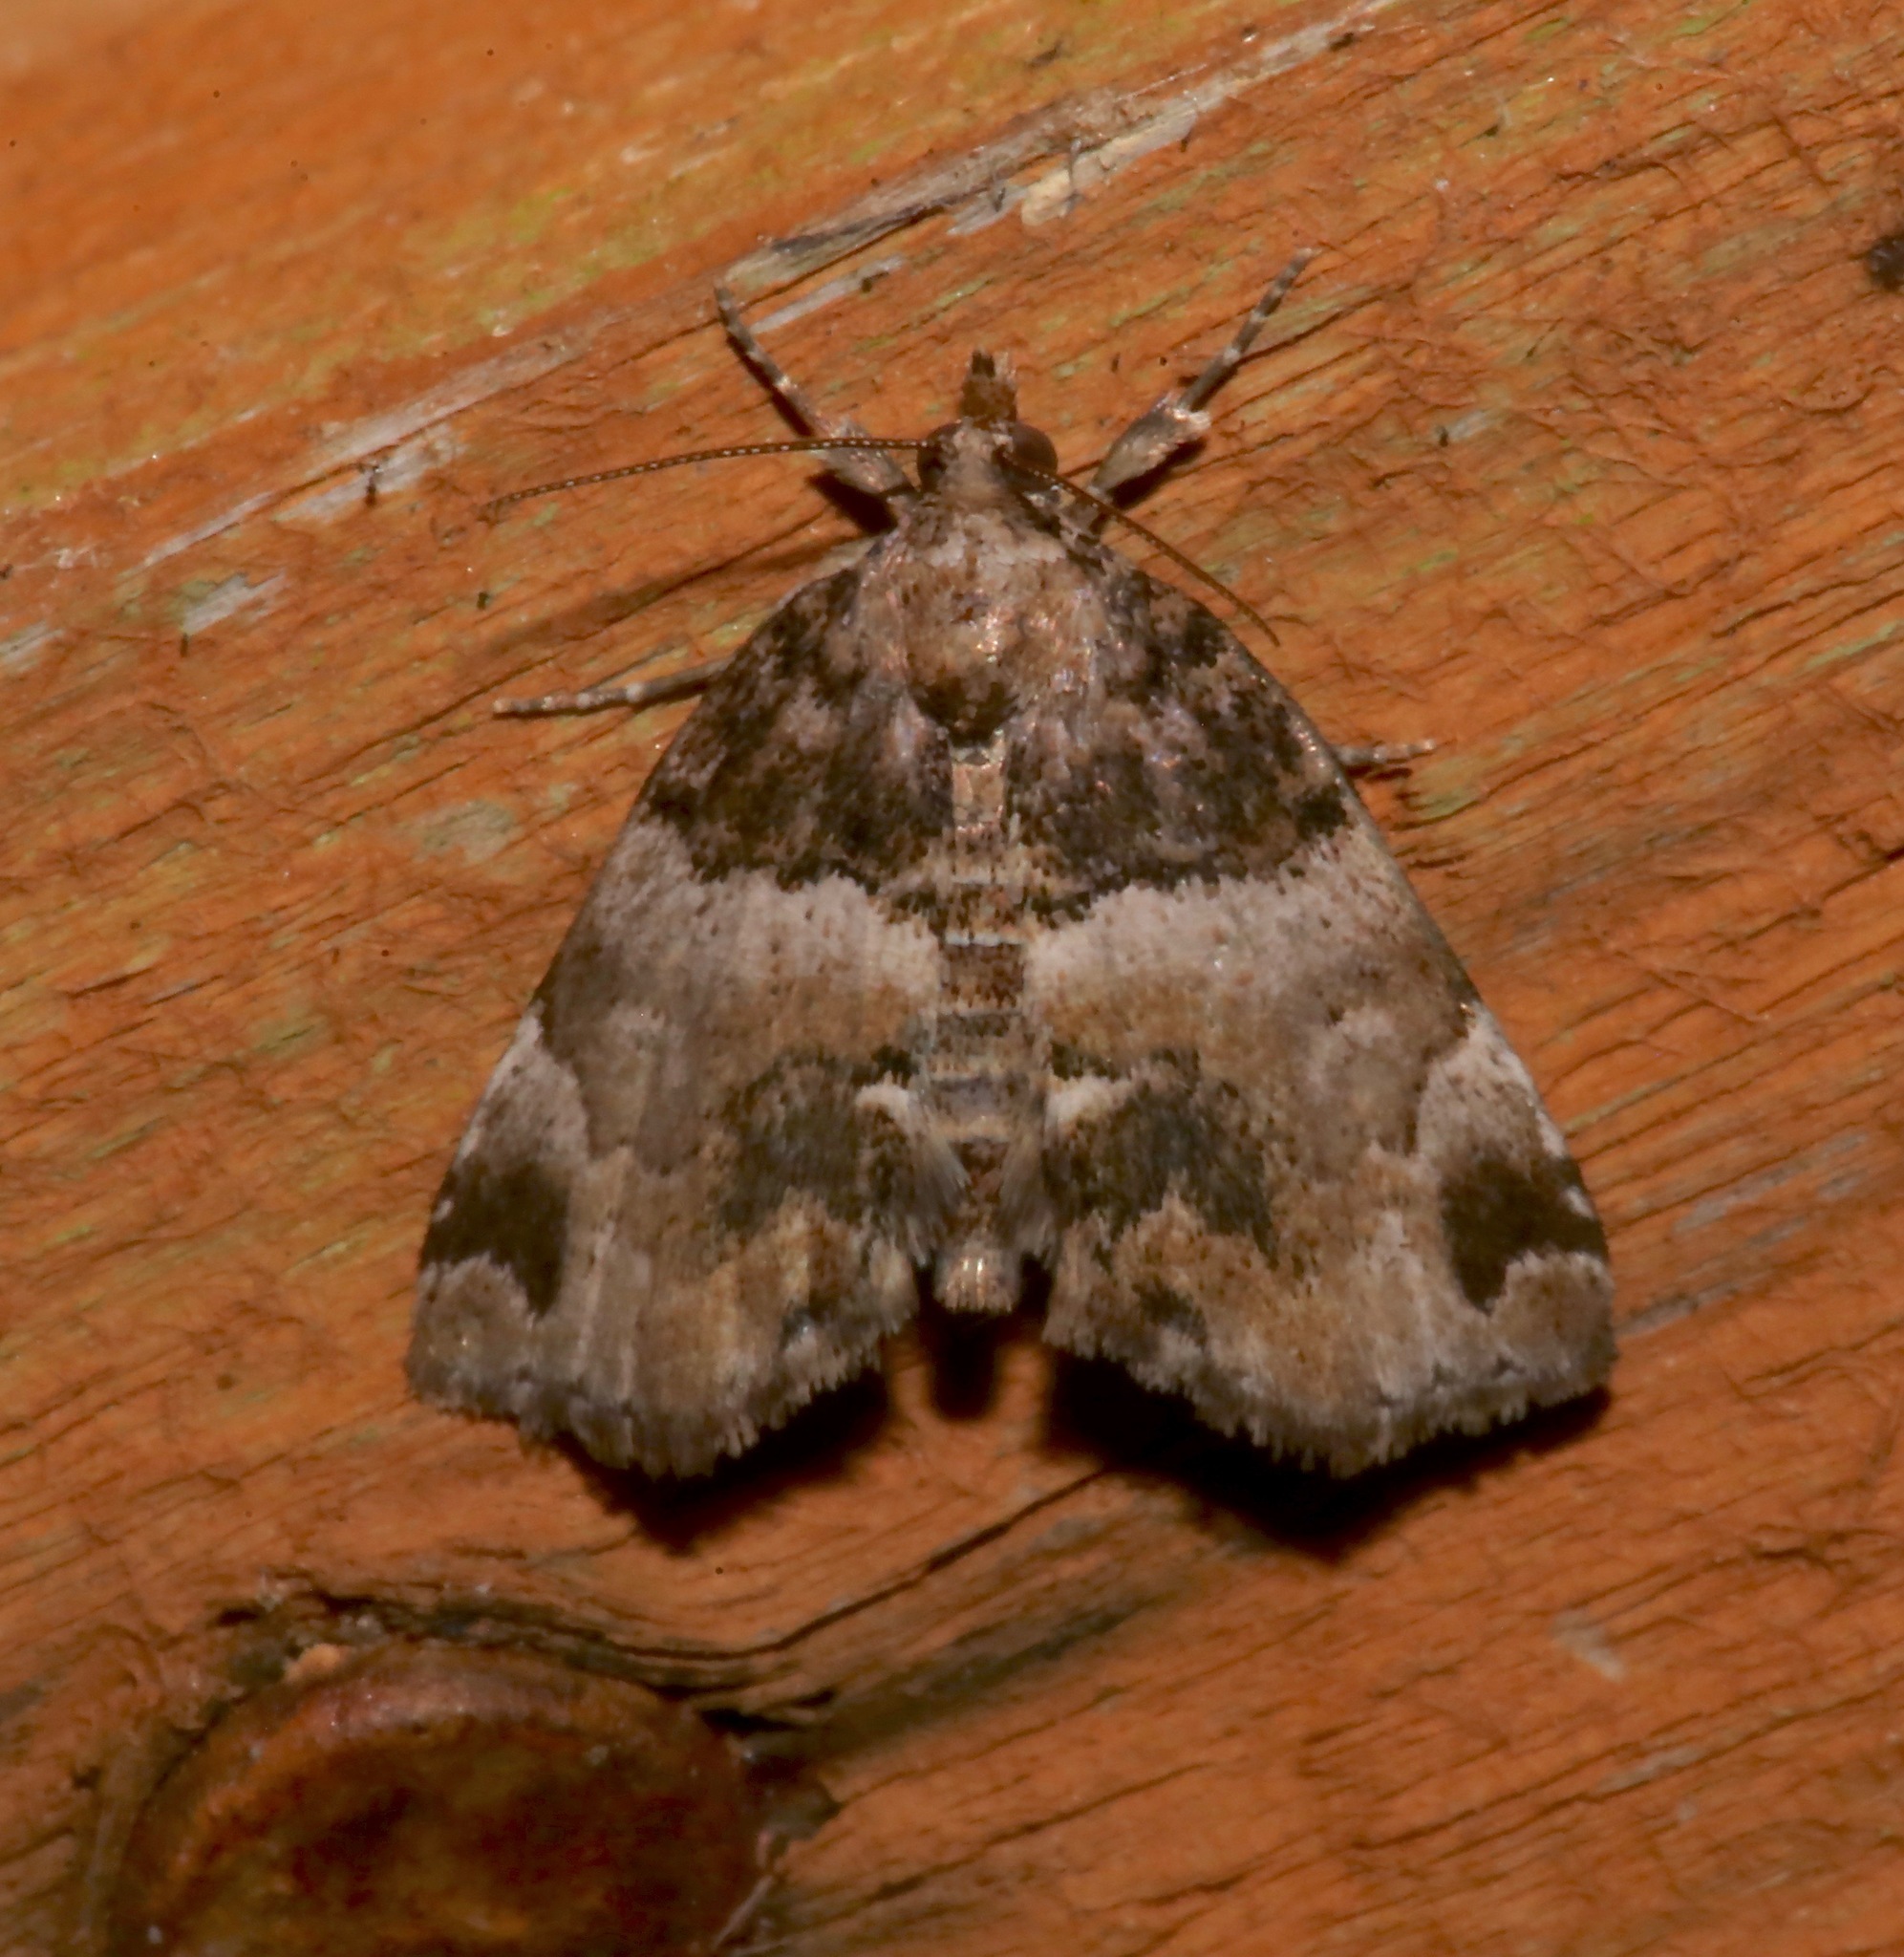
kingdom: Animalia
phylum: Arthropoda
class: Insecta
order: Lepidoptera
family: Erebidae
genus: Cutina
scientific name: Cutina distincta
